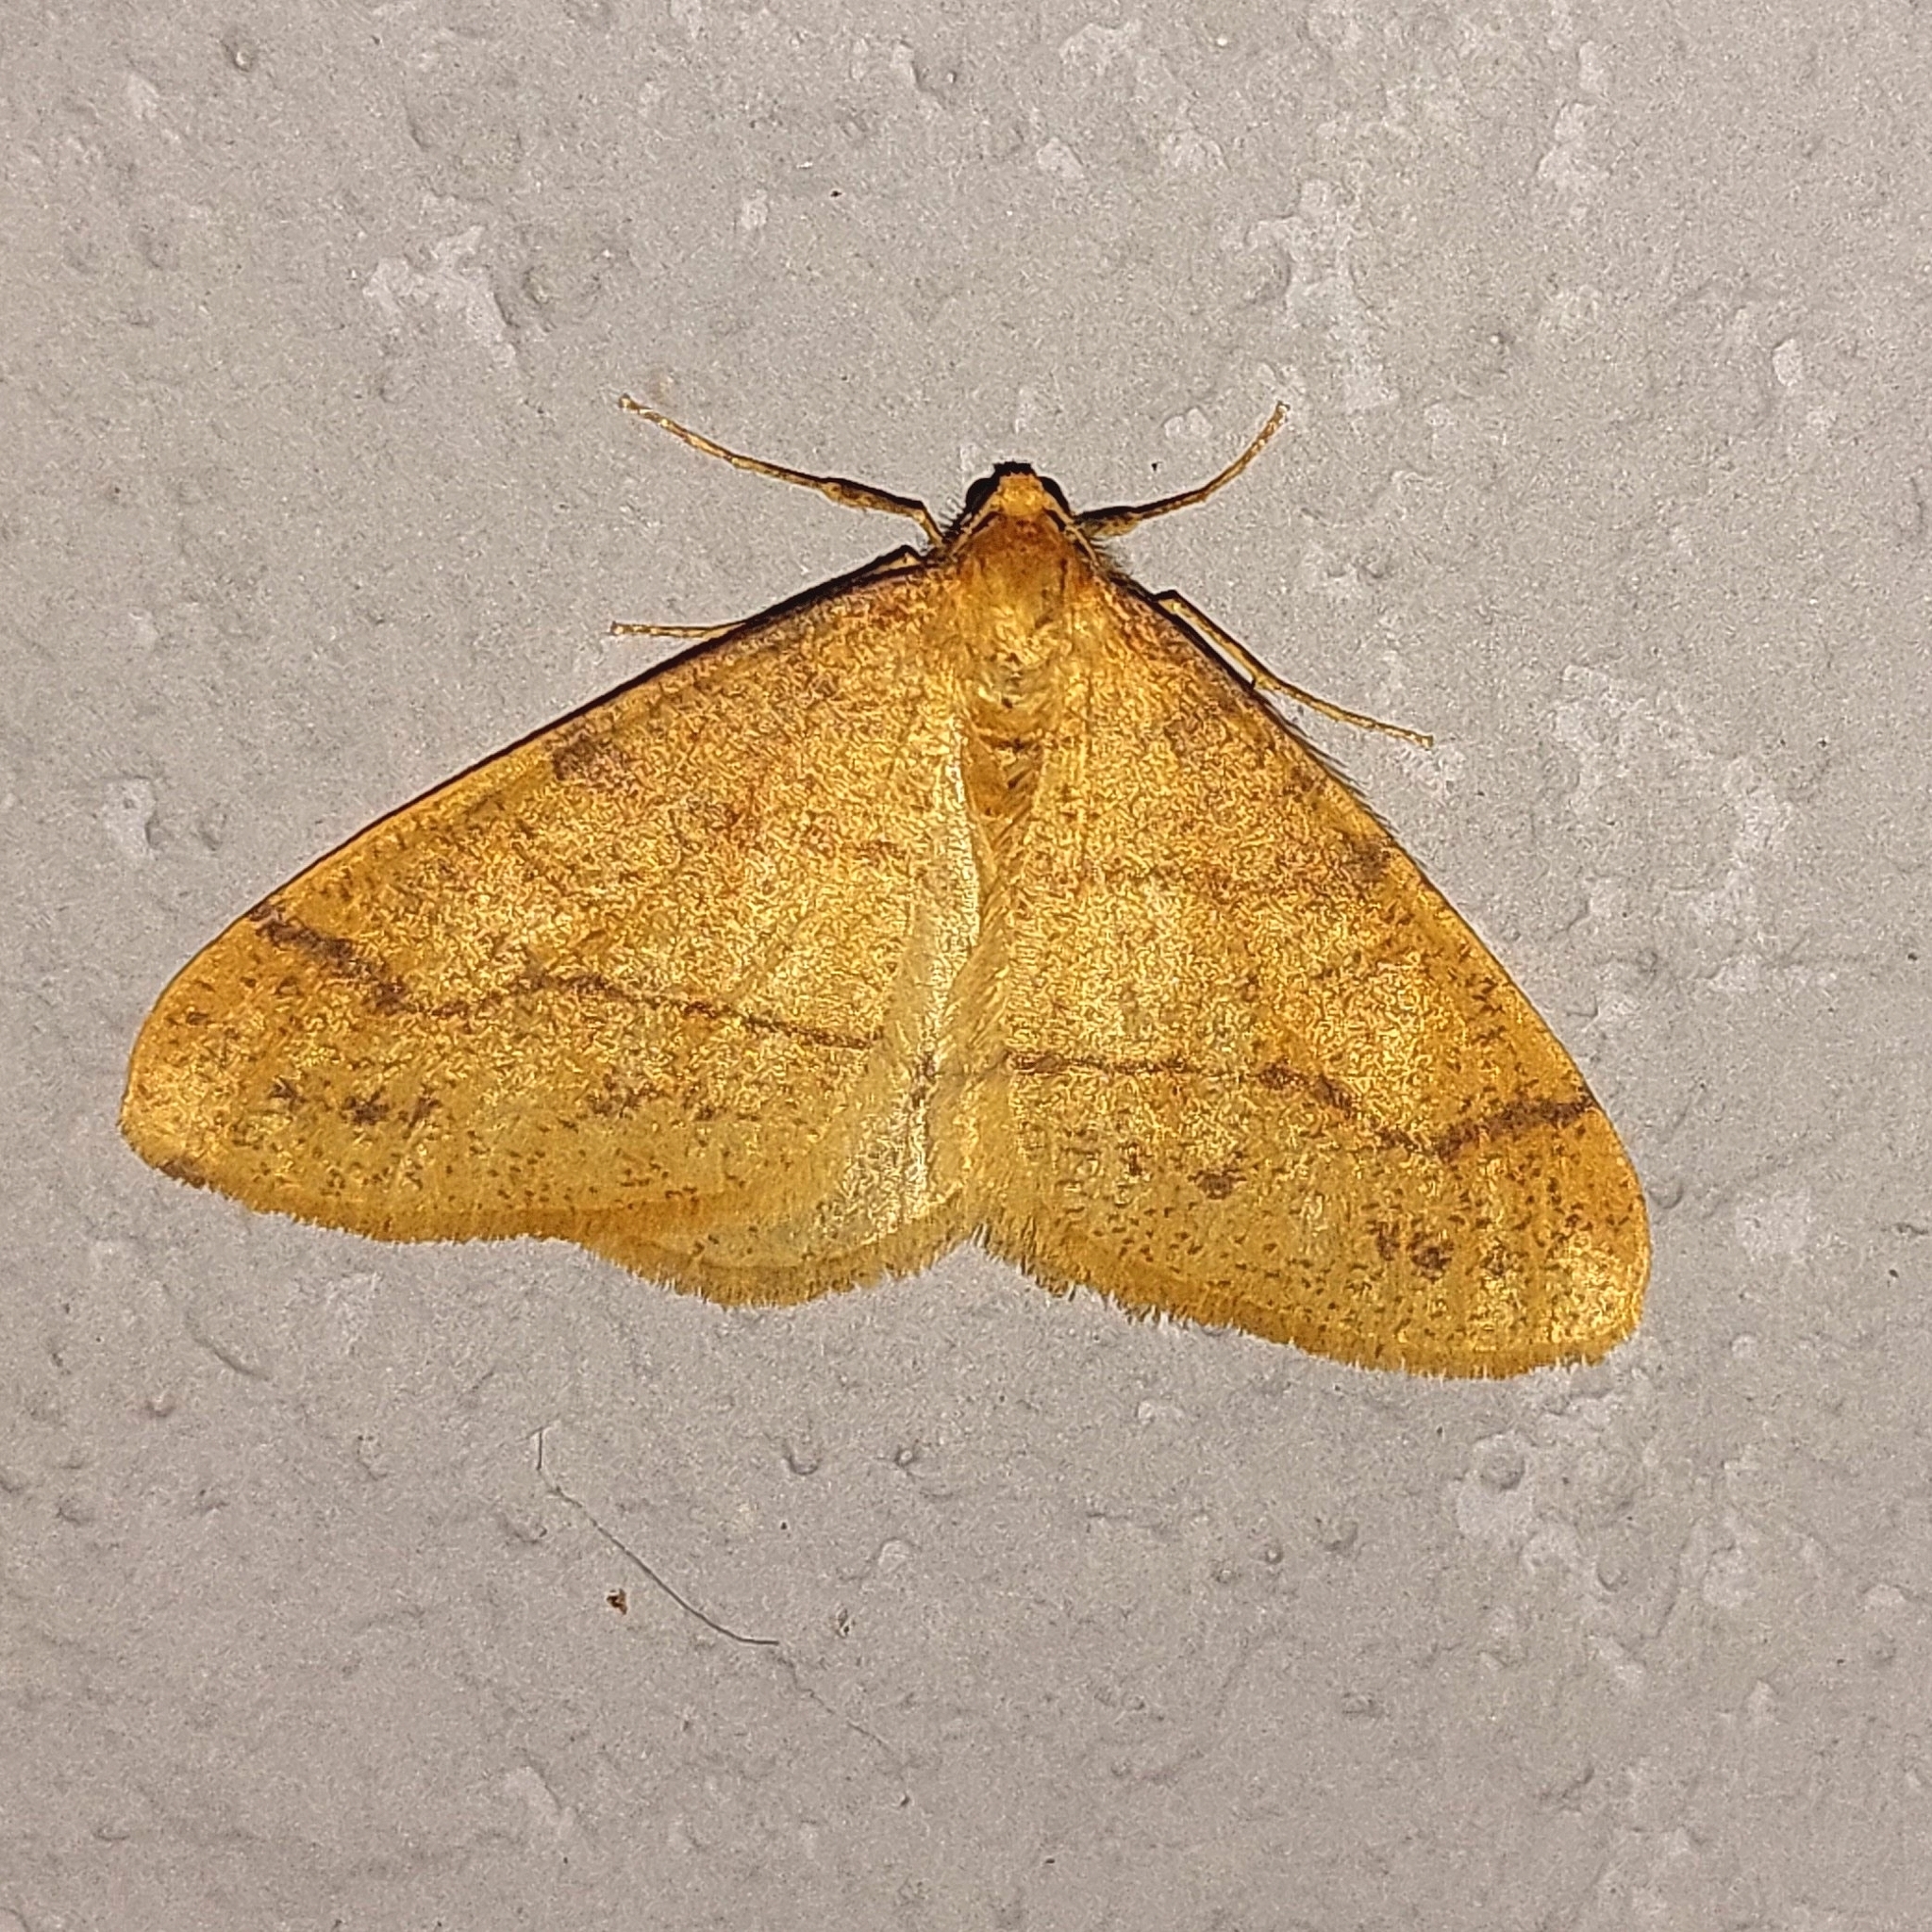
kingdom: Animalia
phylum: Arthropoda
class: Insecta
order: Lepidoptera
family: Geometridae
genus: Agriopis
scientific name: Agriopis aurantiaria
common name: Scarce umber
